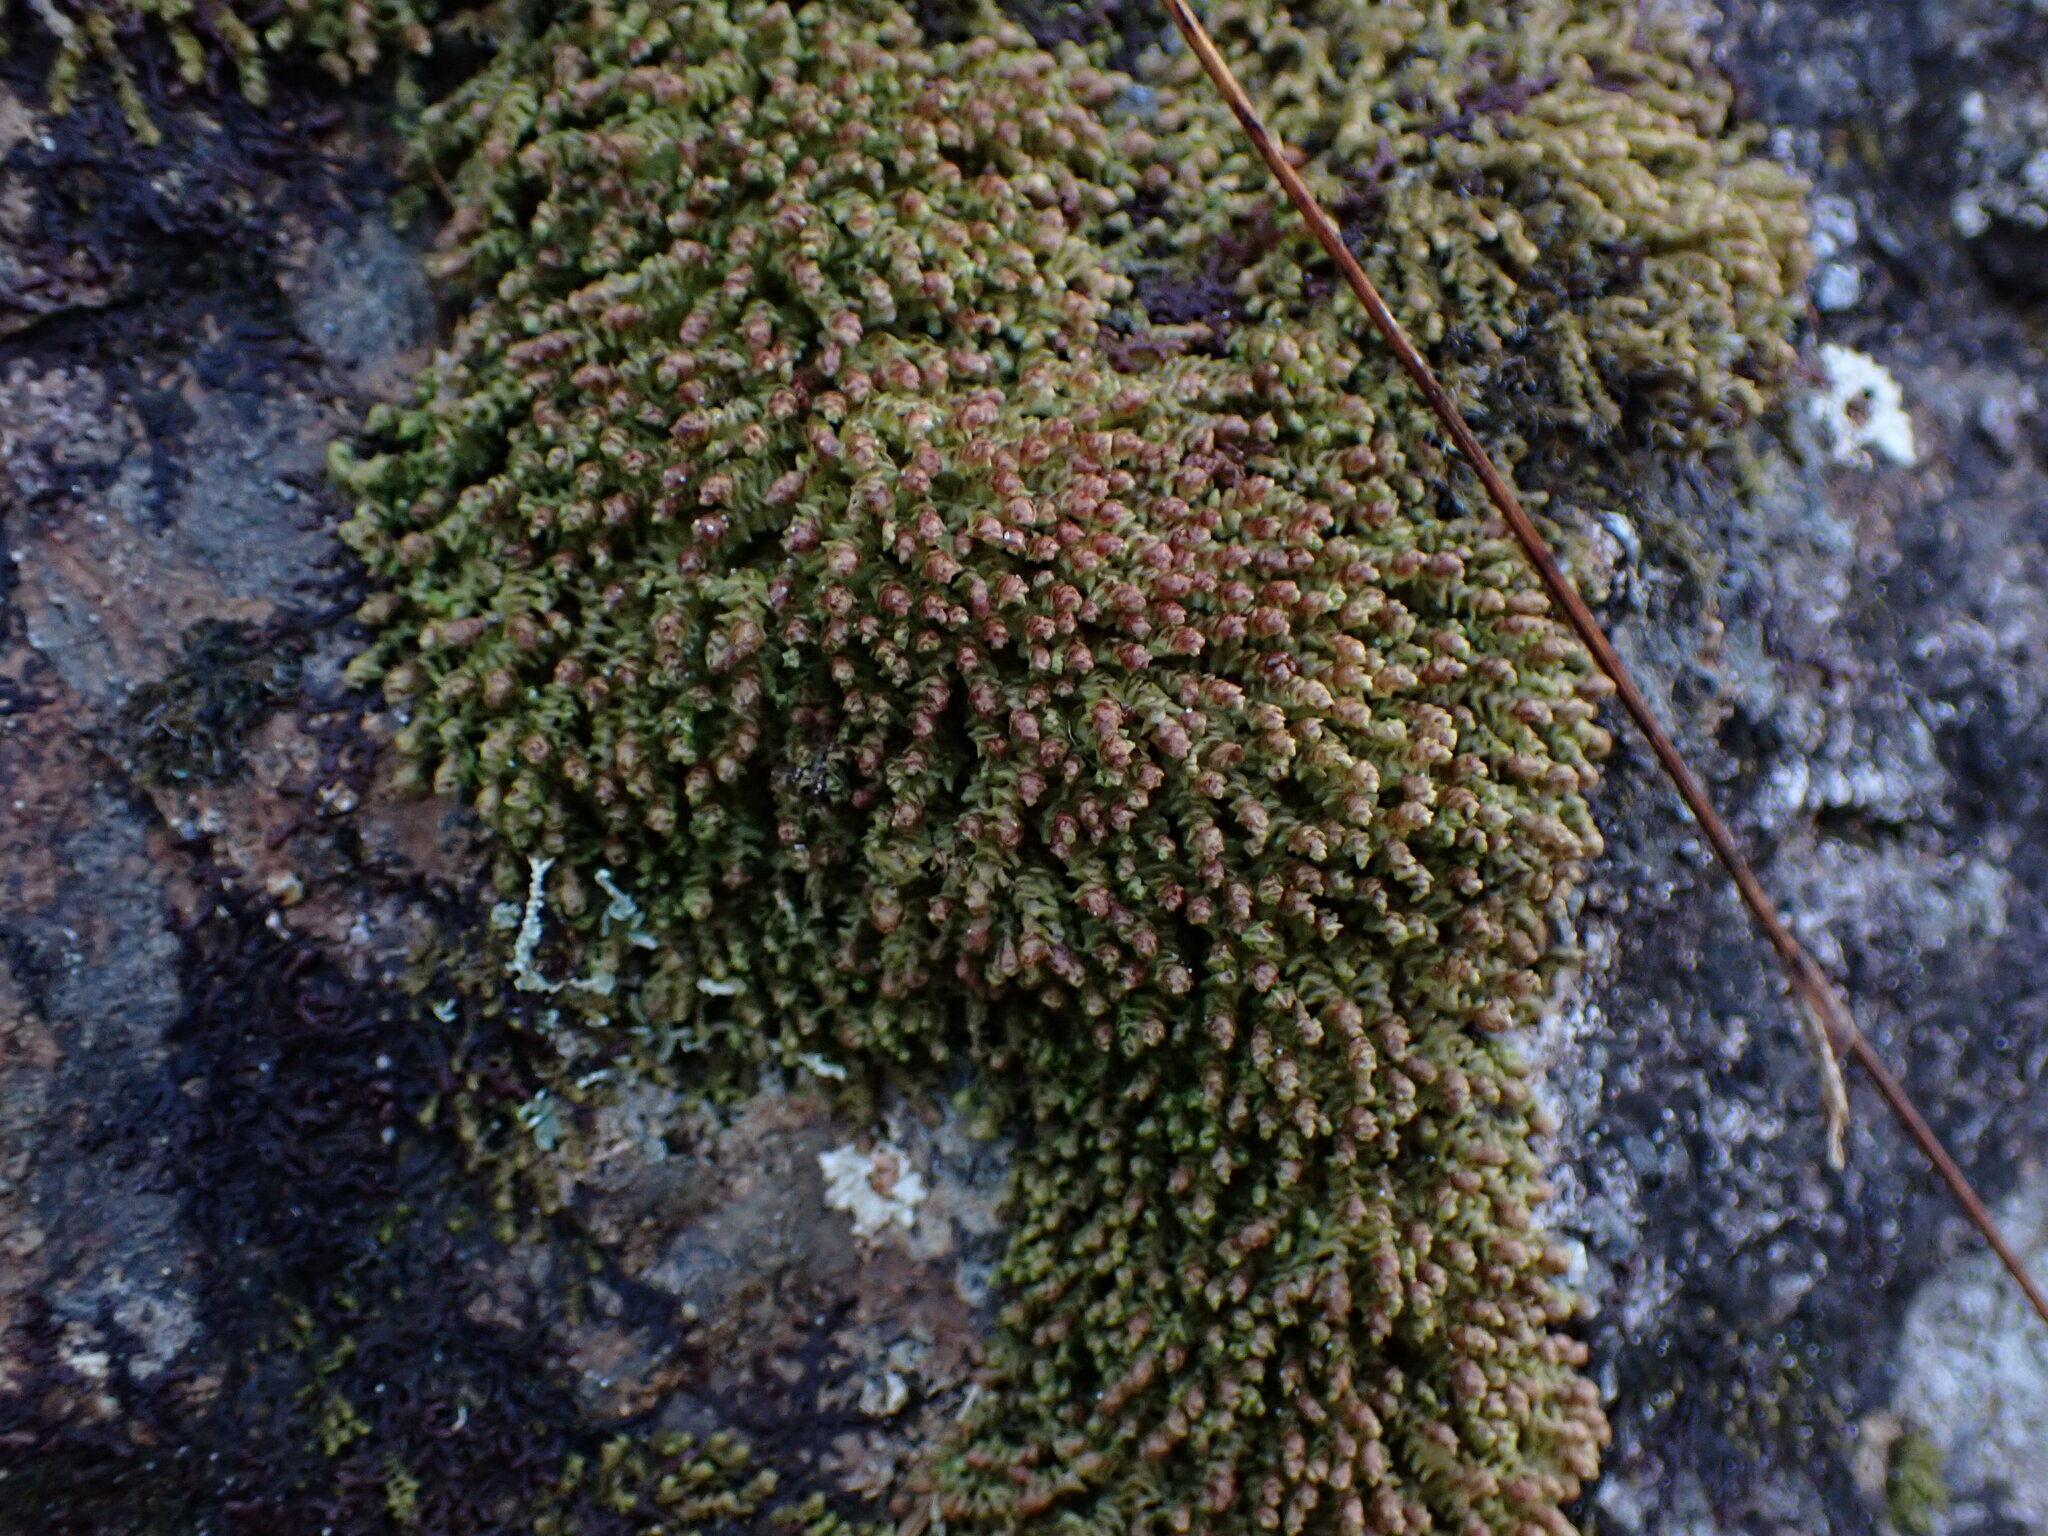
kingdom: Plantae
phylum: Marchantiophyta
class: Jungermanniopsida
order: Jungermanniales
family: Scapaniaceae
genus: Scapania
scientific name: Scapania americana
